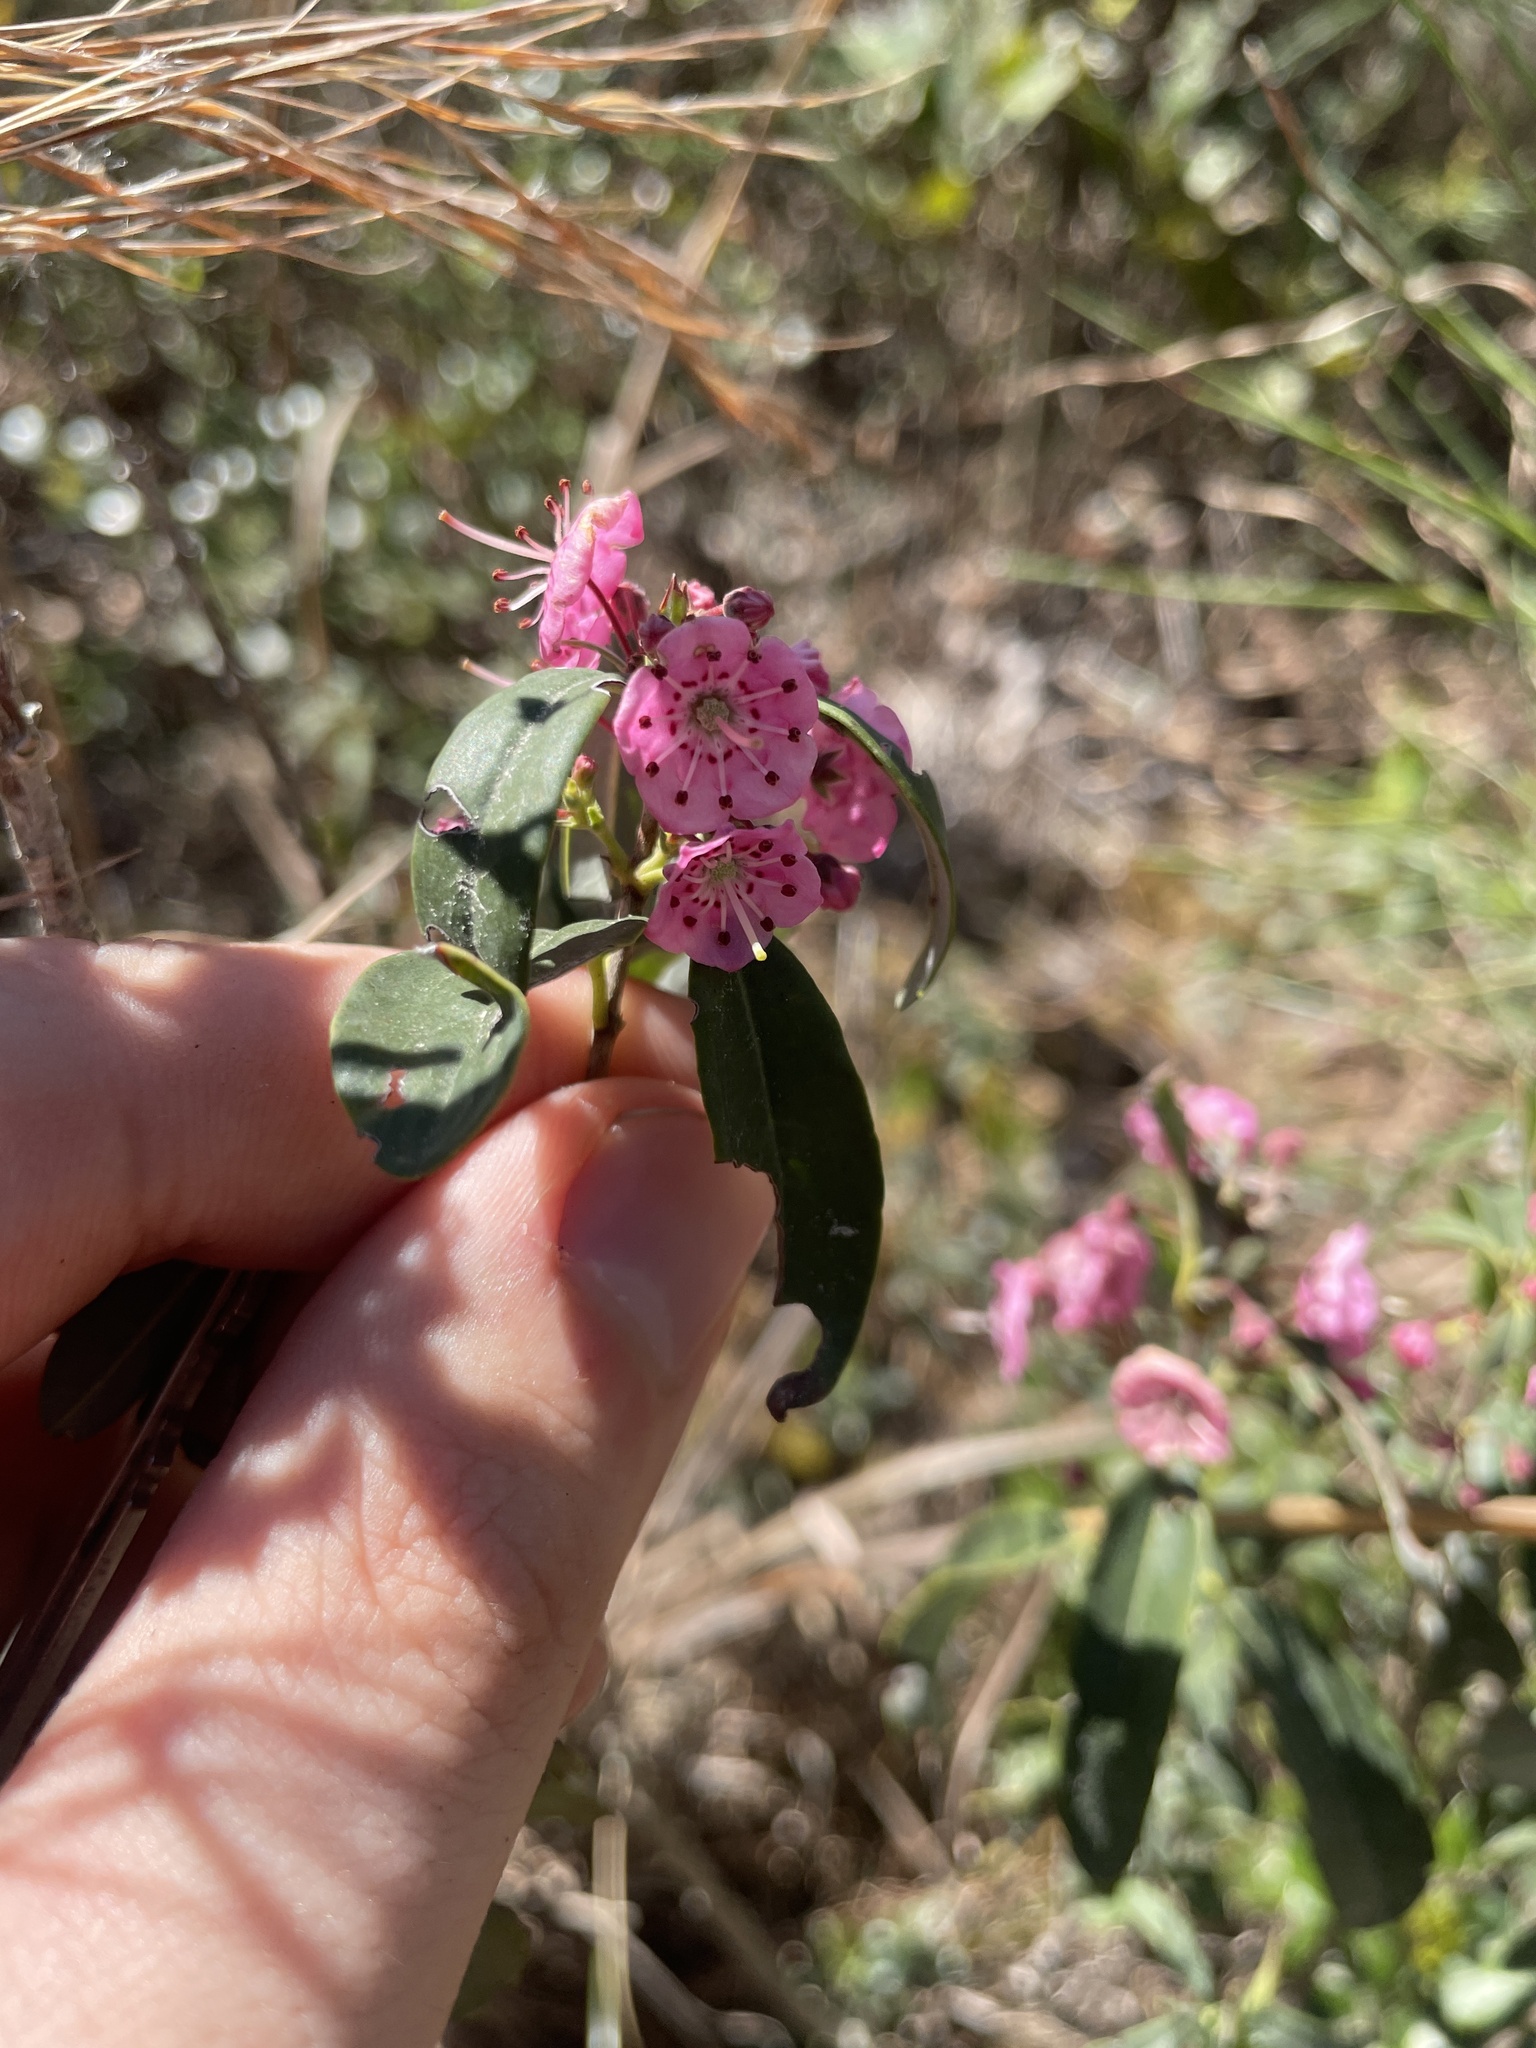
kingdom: Plantae
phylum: Tracheophyta
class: Magnoliopsida
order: Ericales
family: Ericaceae
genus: Kalmia
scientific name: Kalmia angustifolia
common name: Sheep-laurel
